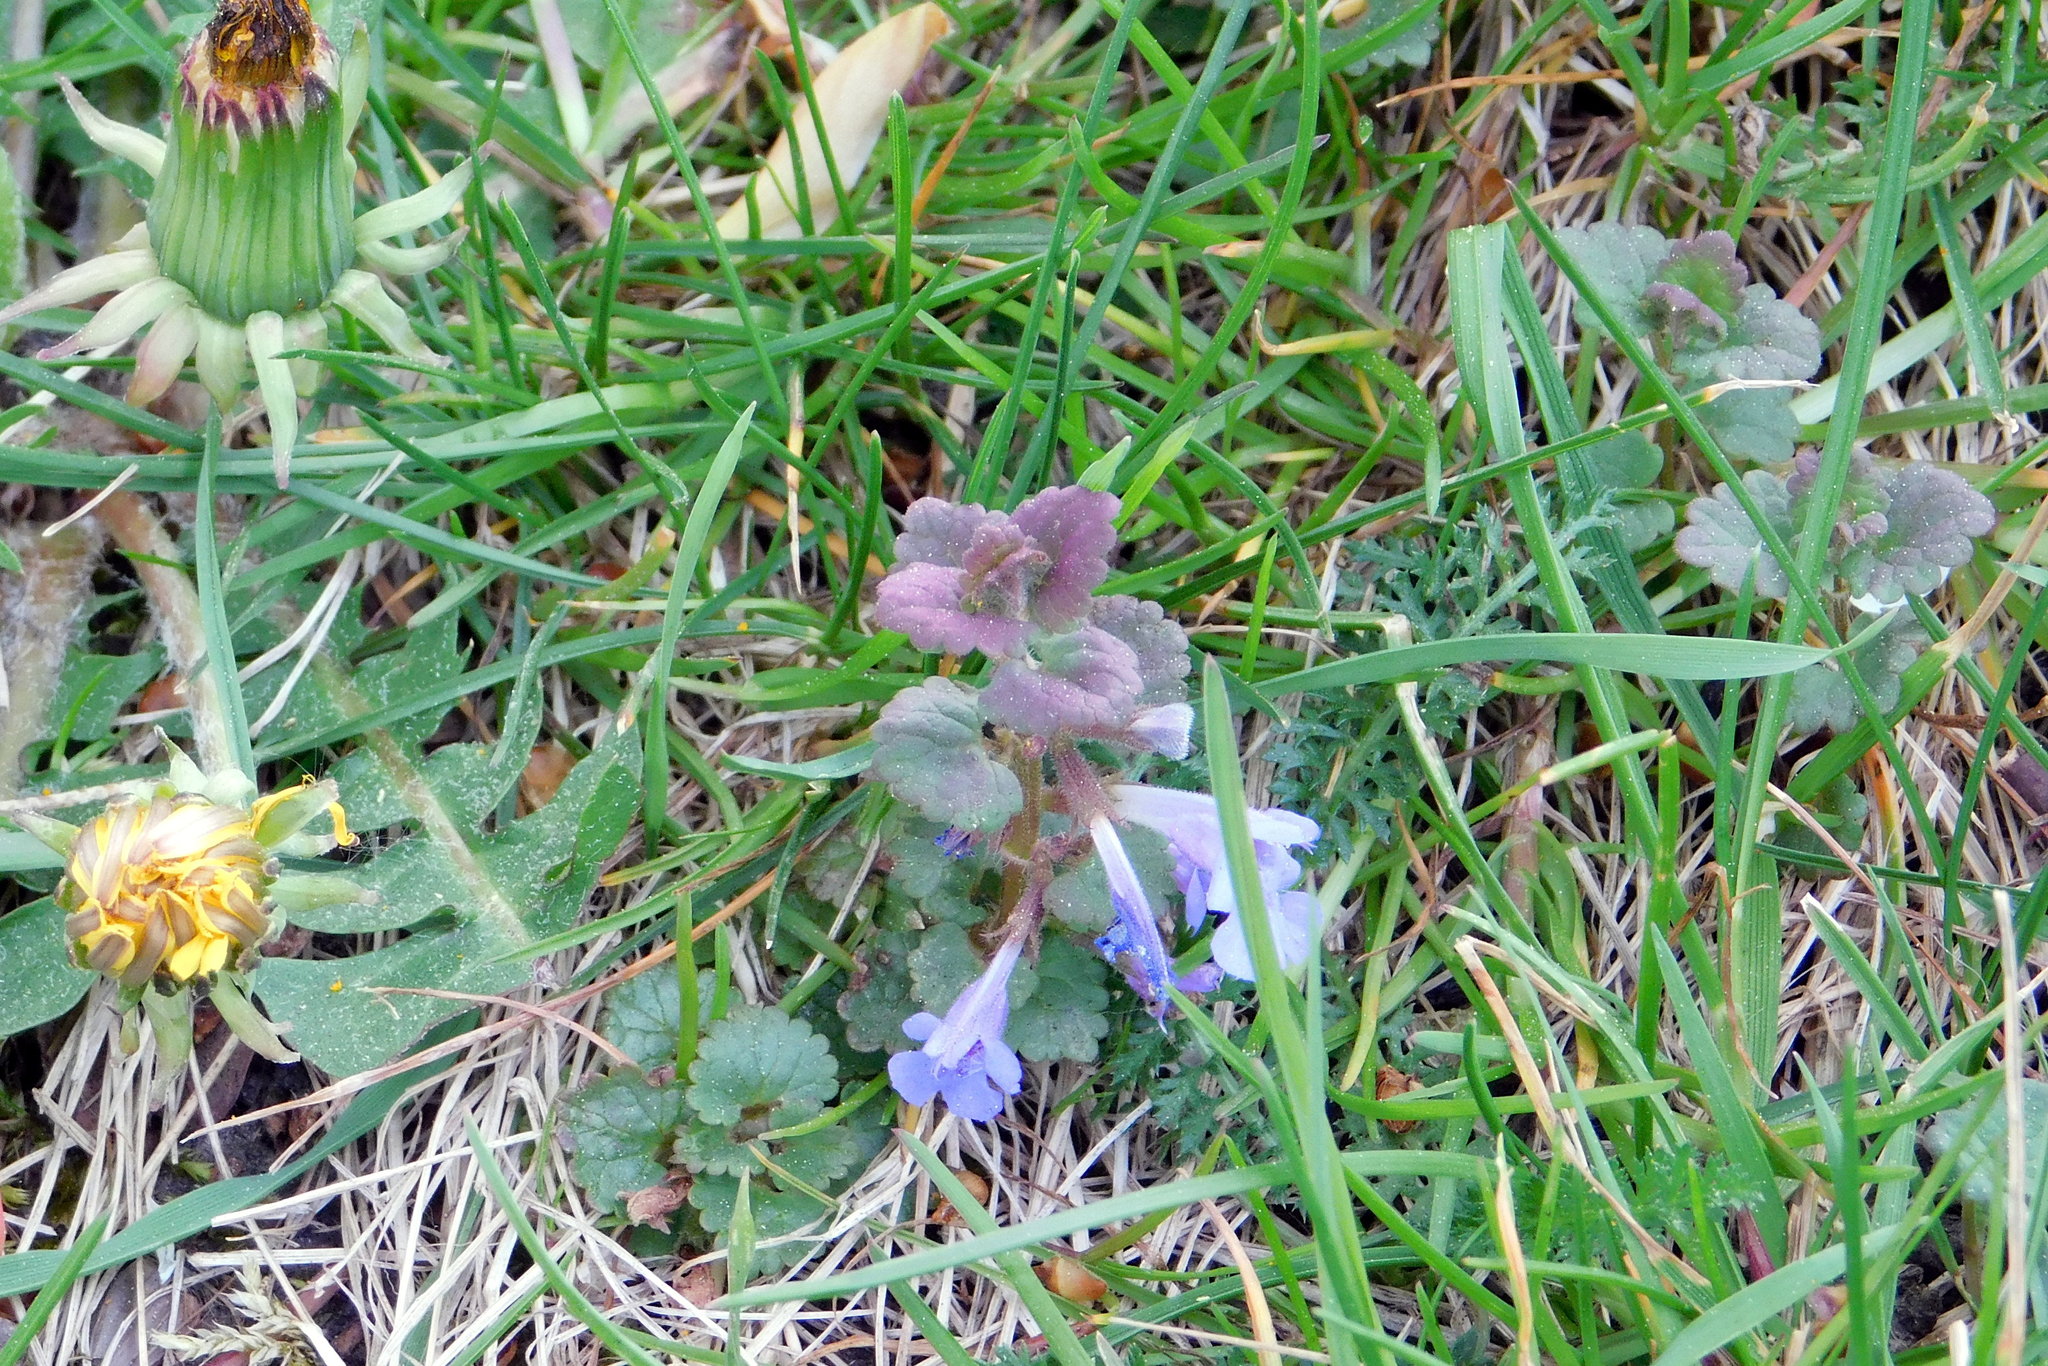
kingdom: Plantae
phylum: Tracheophyta
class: Magnoliopsida
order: Lamiales
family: Lamiaceae
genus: Glechoma
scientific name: Glechoma hederacea
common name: Ground ivy
